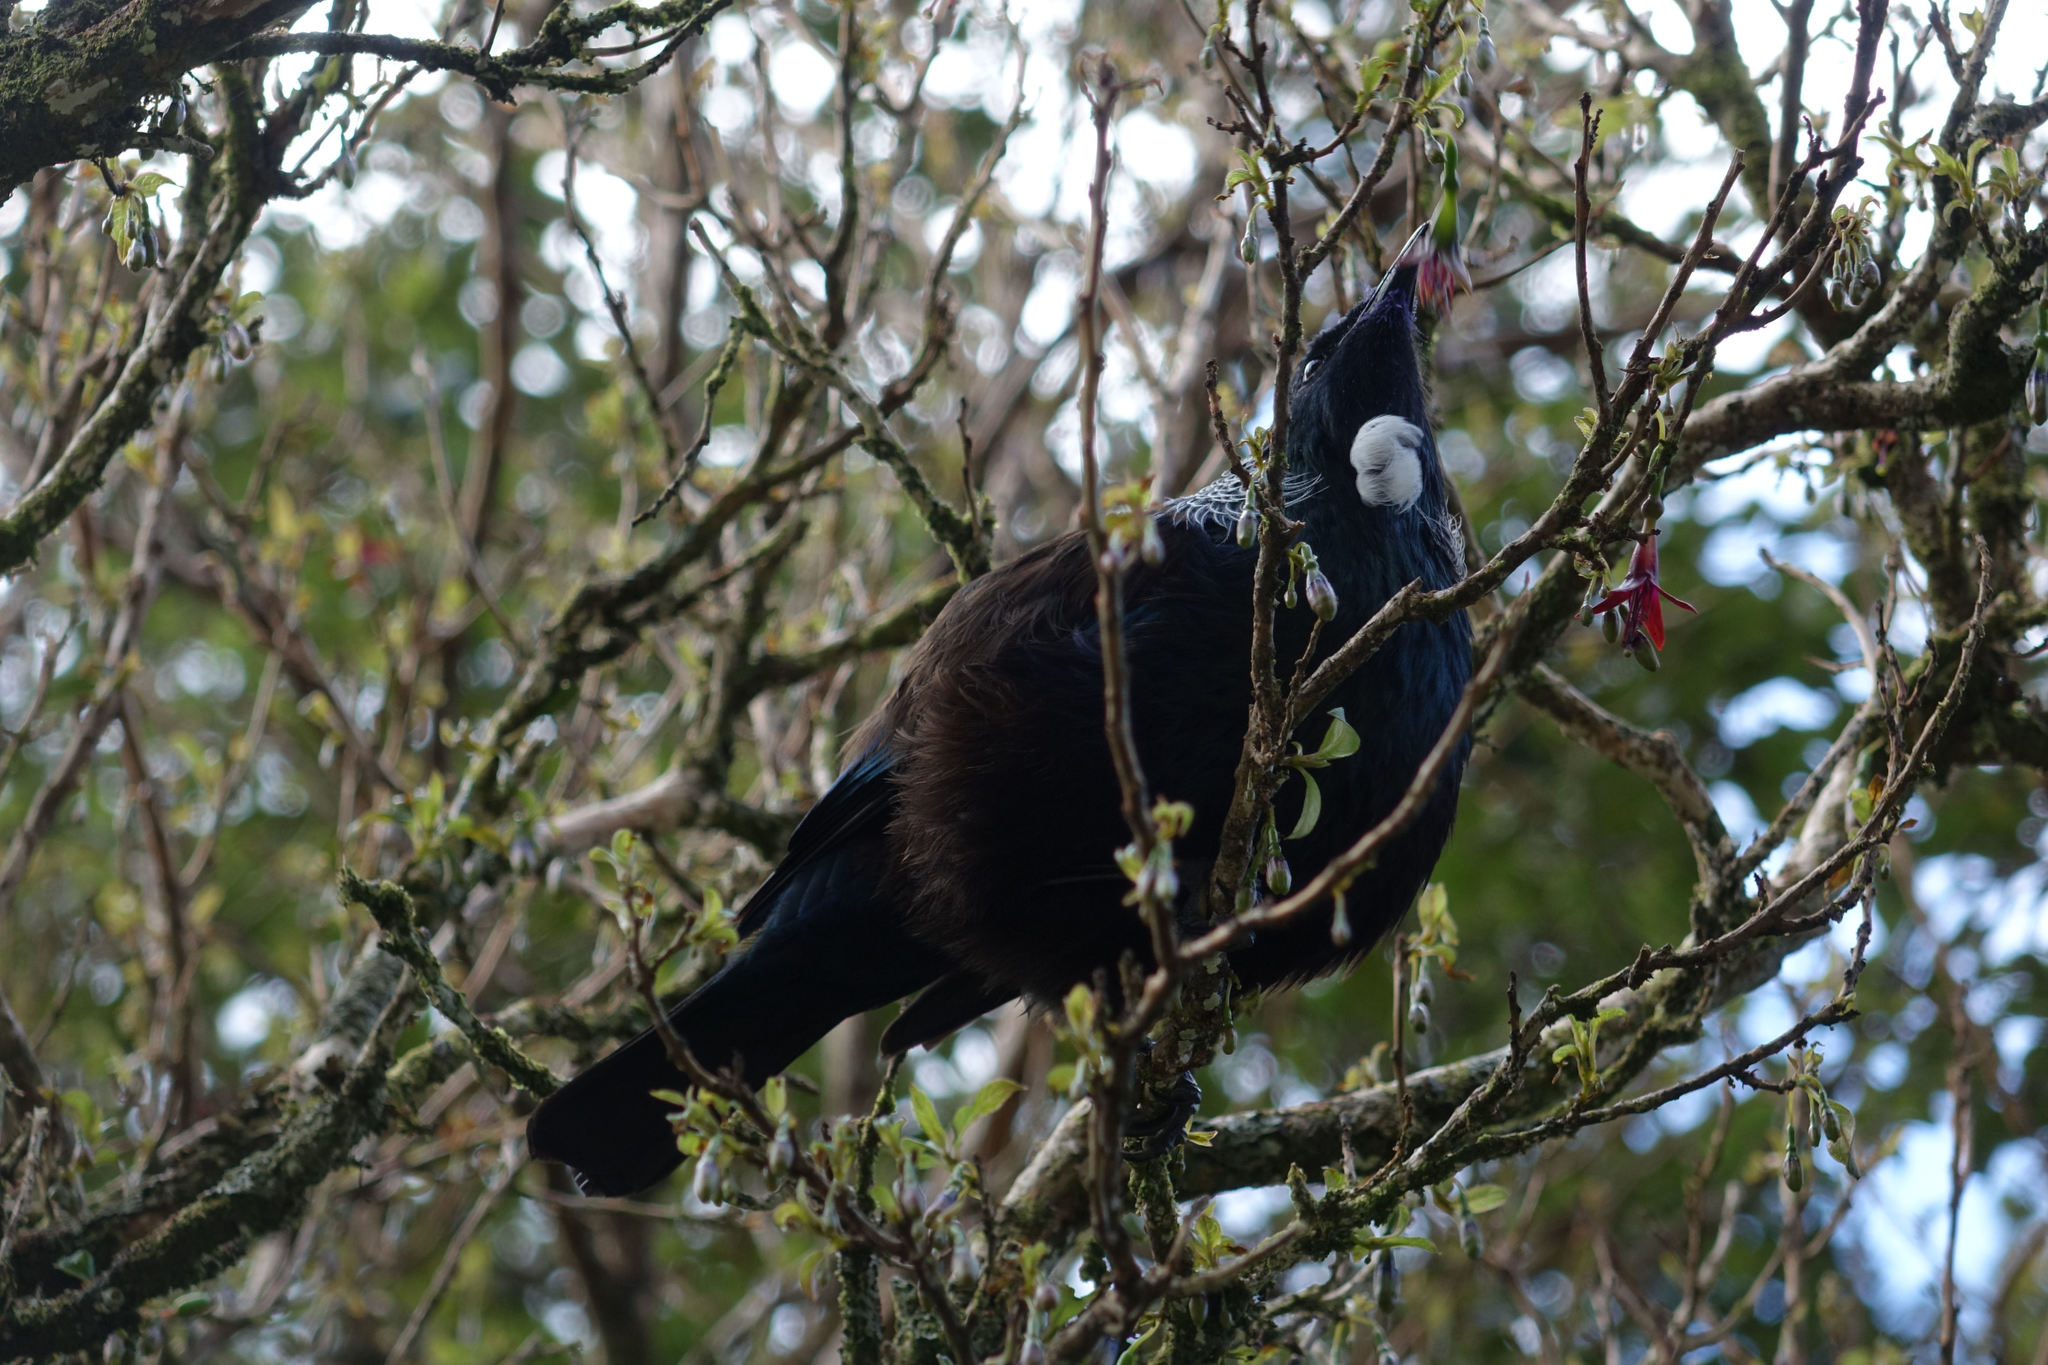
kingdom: Animalia
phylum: Chordata
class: Aves
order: Passeriformes
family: Meliphagidae
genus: Prosthemadera
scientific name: Prosthemadera novaeseelandiae
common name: Tui
